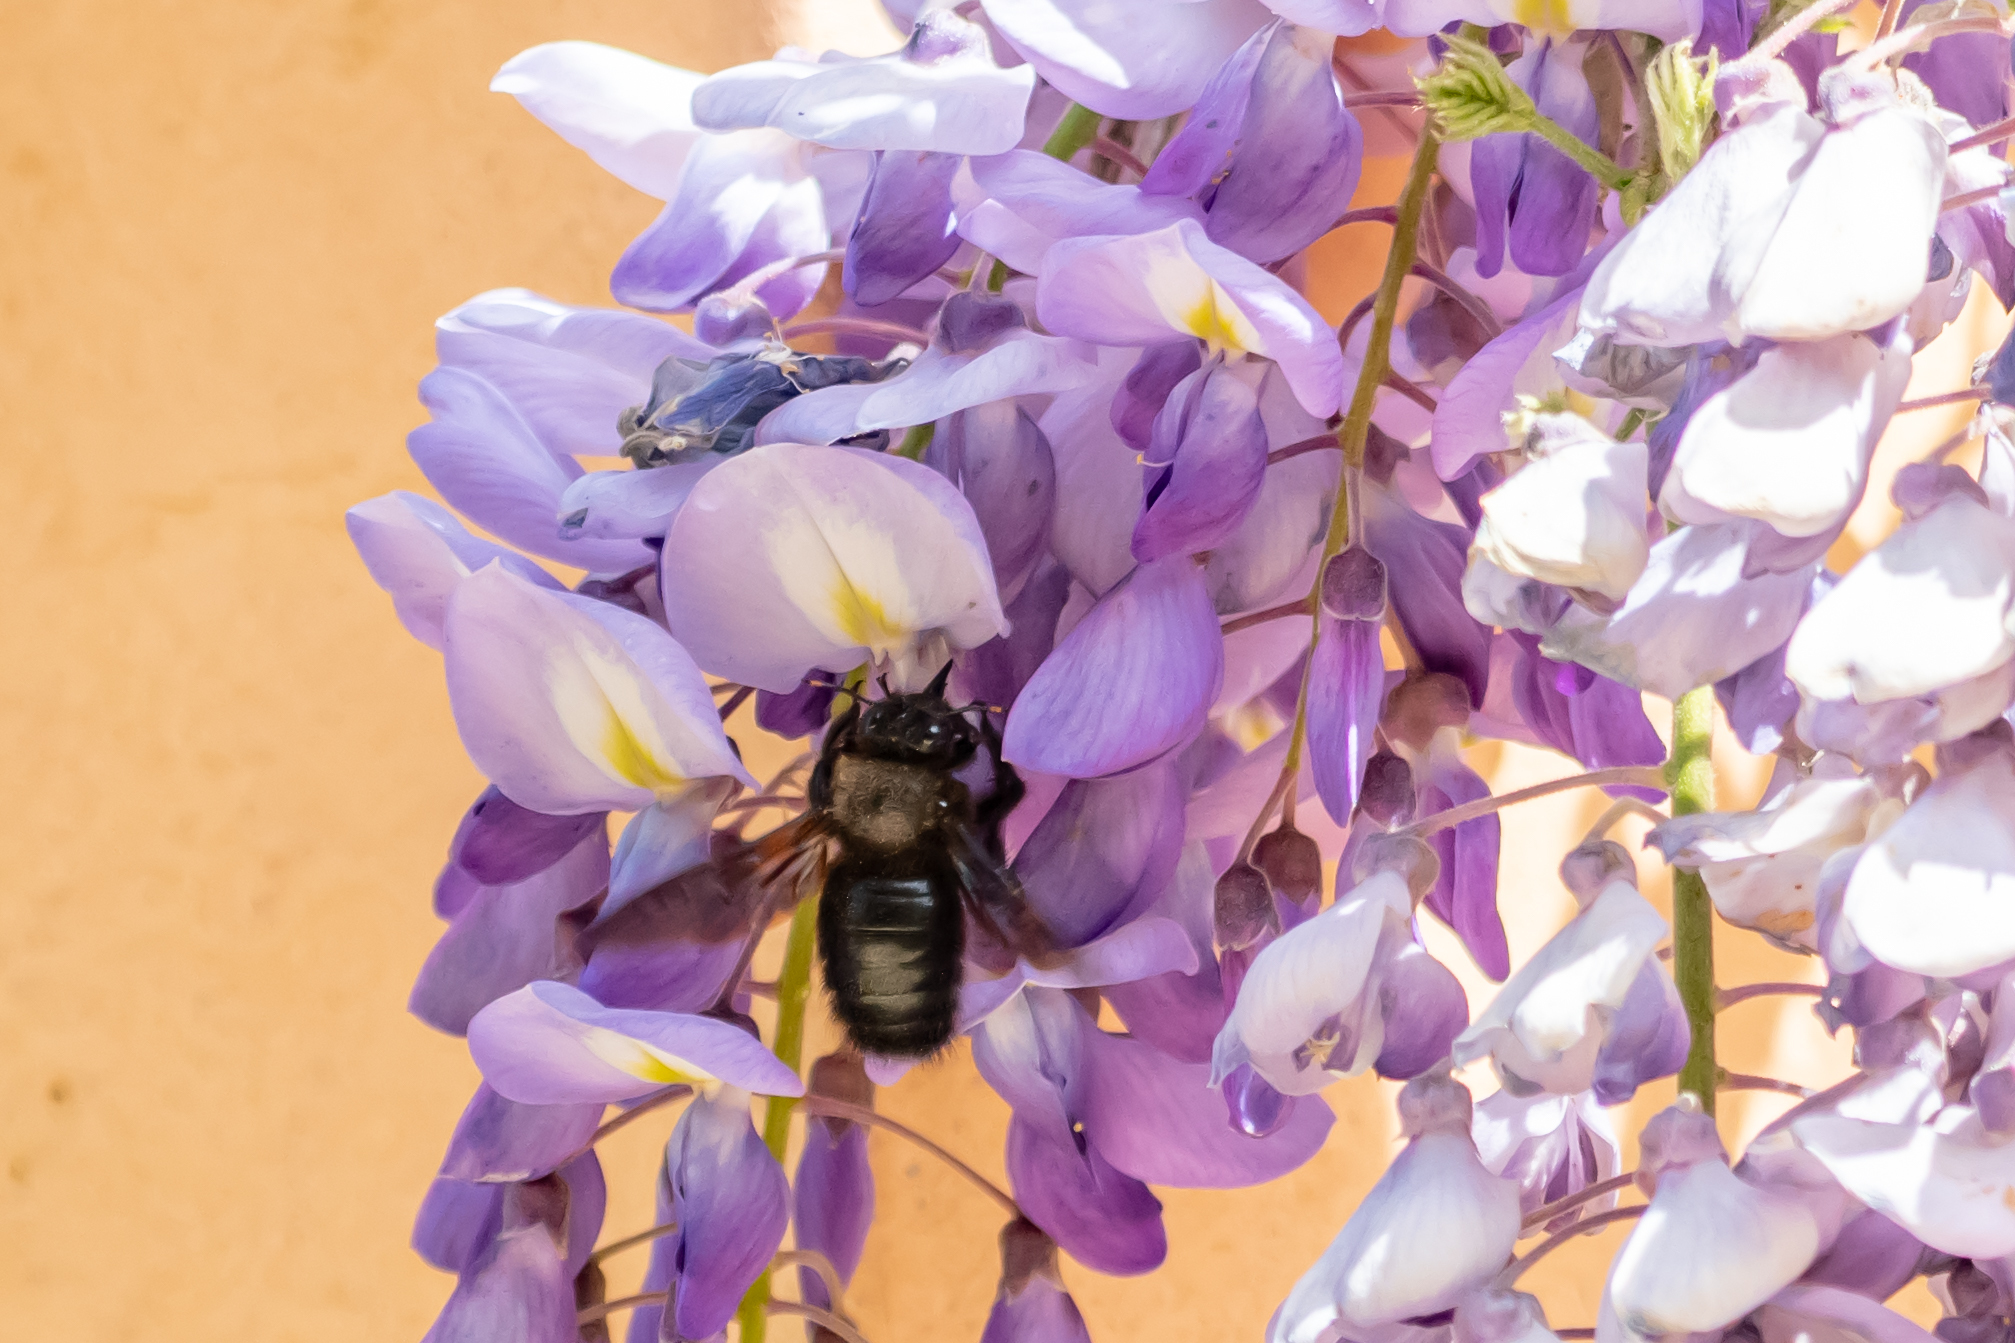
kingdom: Animalia
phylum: Arthropoda
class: Insecta
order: Hymenoptera
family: Apidae
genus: Xylocopa
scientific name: Xylocopa violacea
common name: Violet carpenter bee
